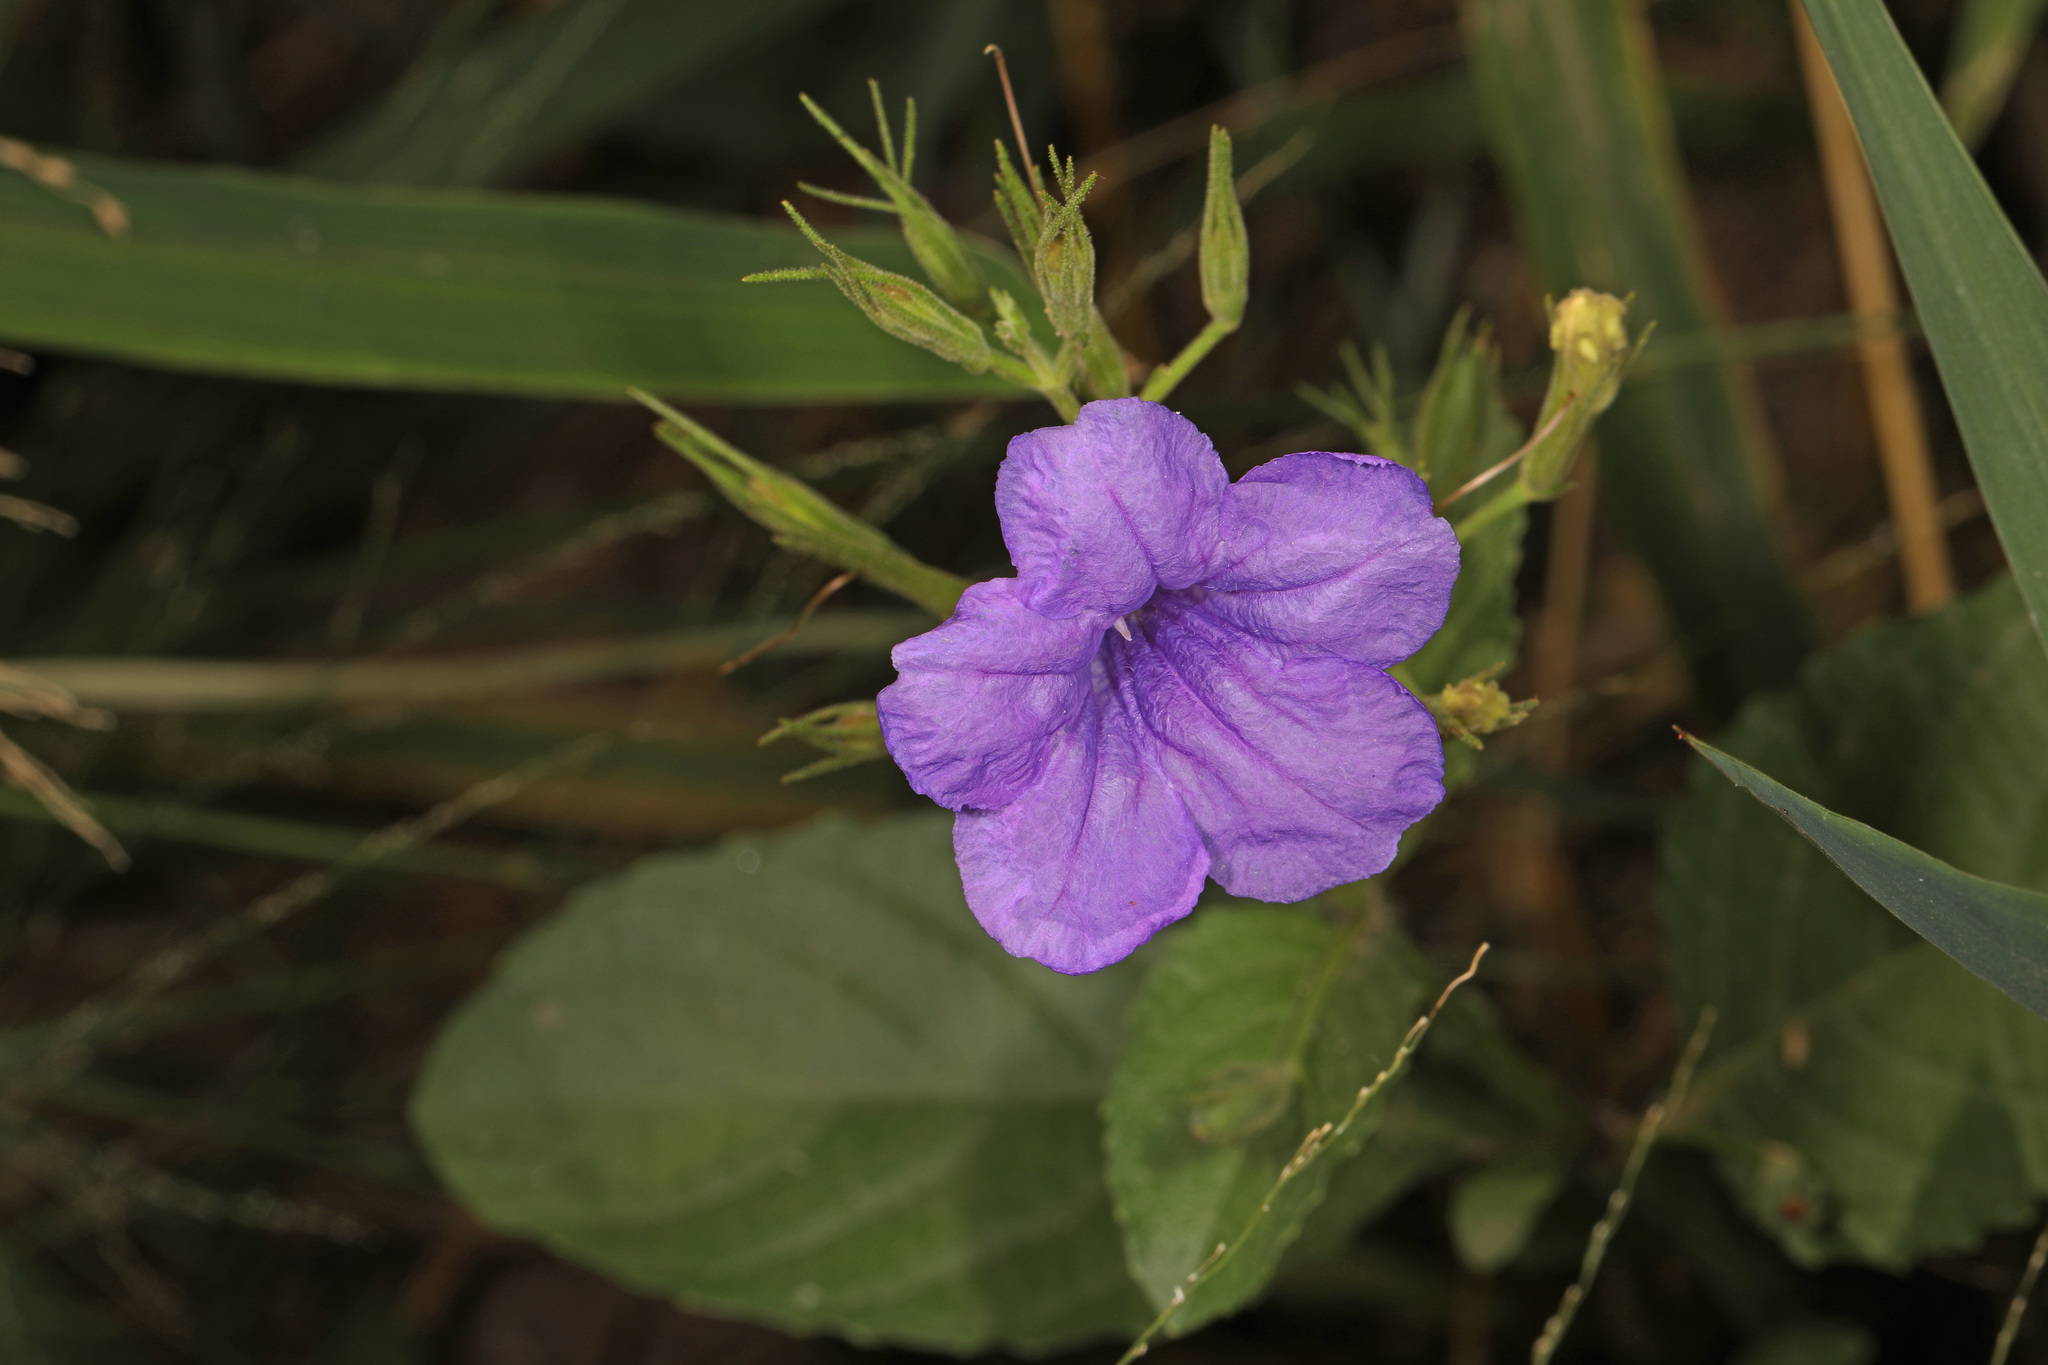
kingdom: Plantae
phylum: Tracheophyta
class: Magnoliopsida
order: Lamiales
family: Acanthaceae
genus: Ruellia
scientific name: Ruellia ciliatiflora
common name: Hairyflower wild petunia
